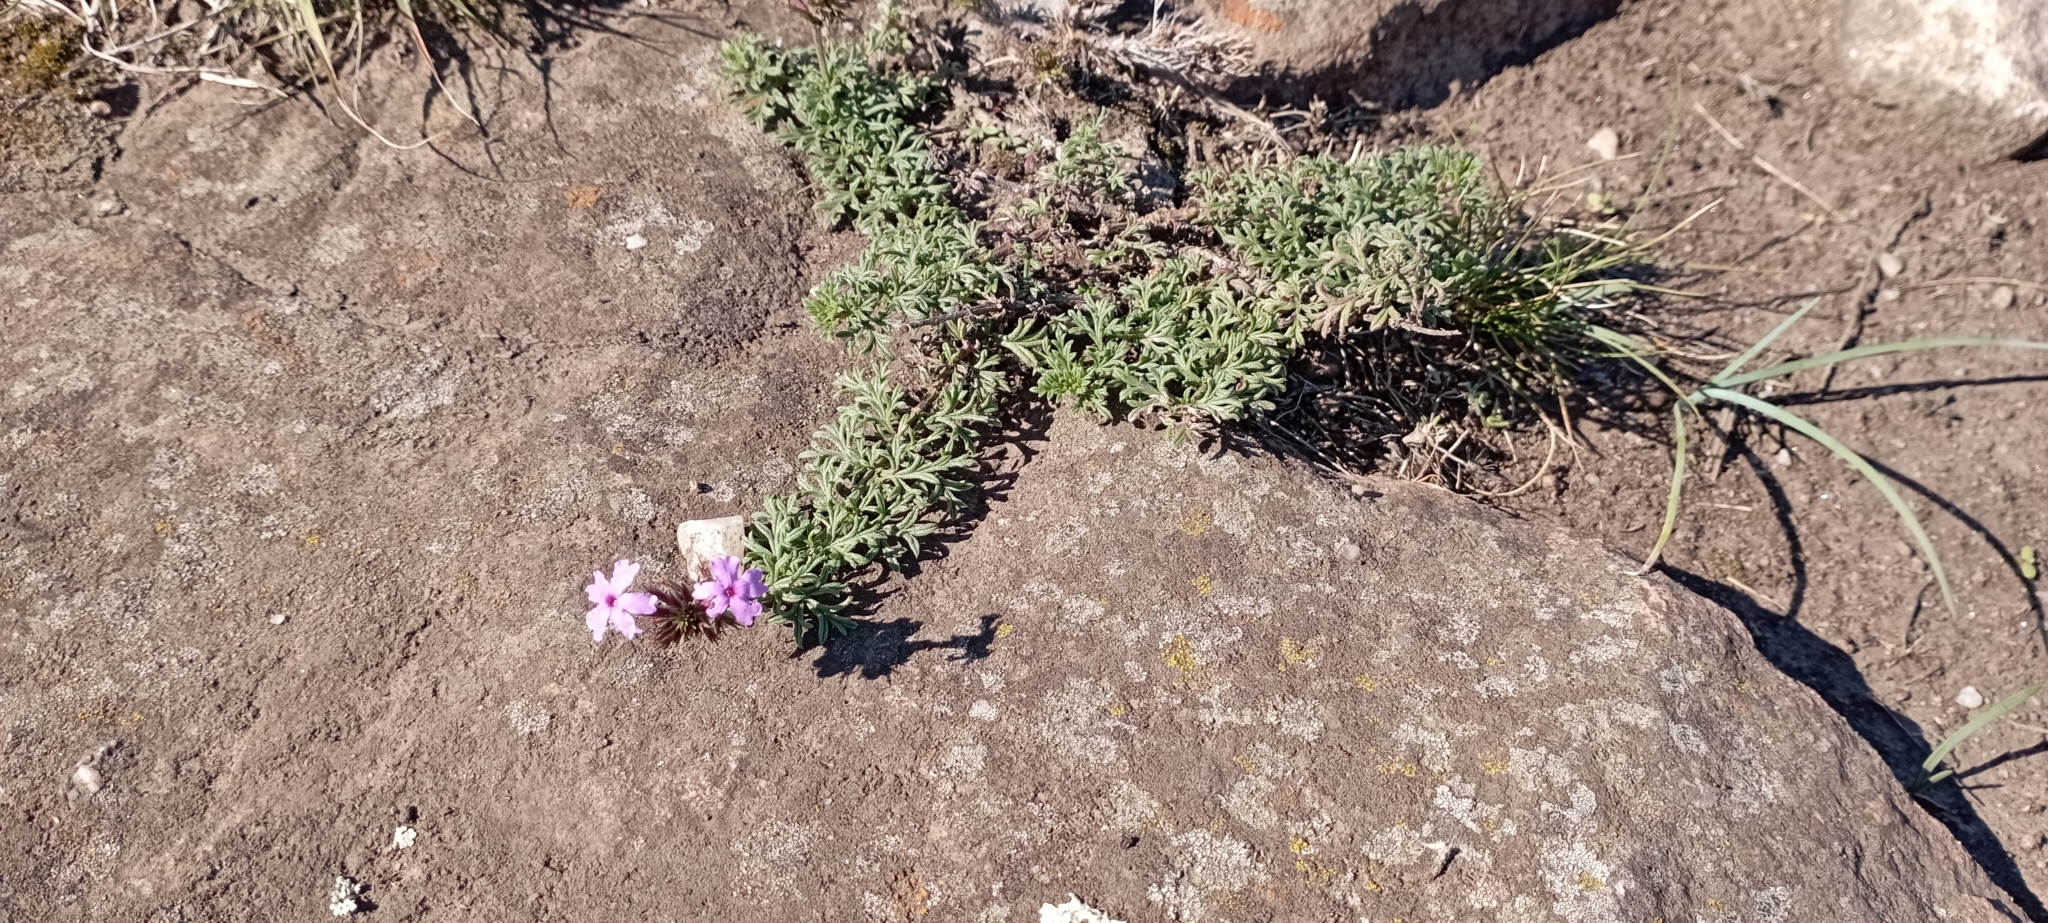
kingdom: Plantae
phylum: Tracheophyta
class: Magnoliopsida
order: Lamiales
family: Verbenaceae
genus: Verbena
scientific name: Verbena tenera
